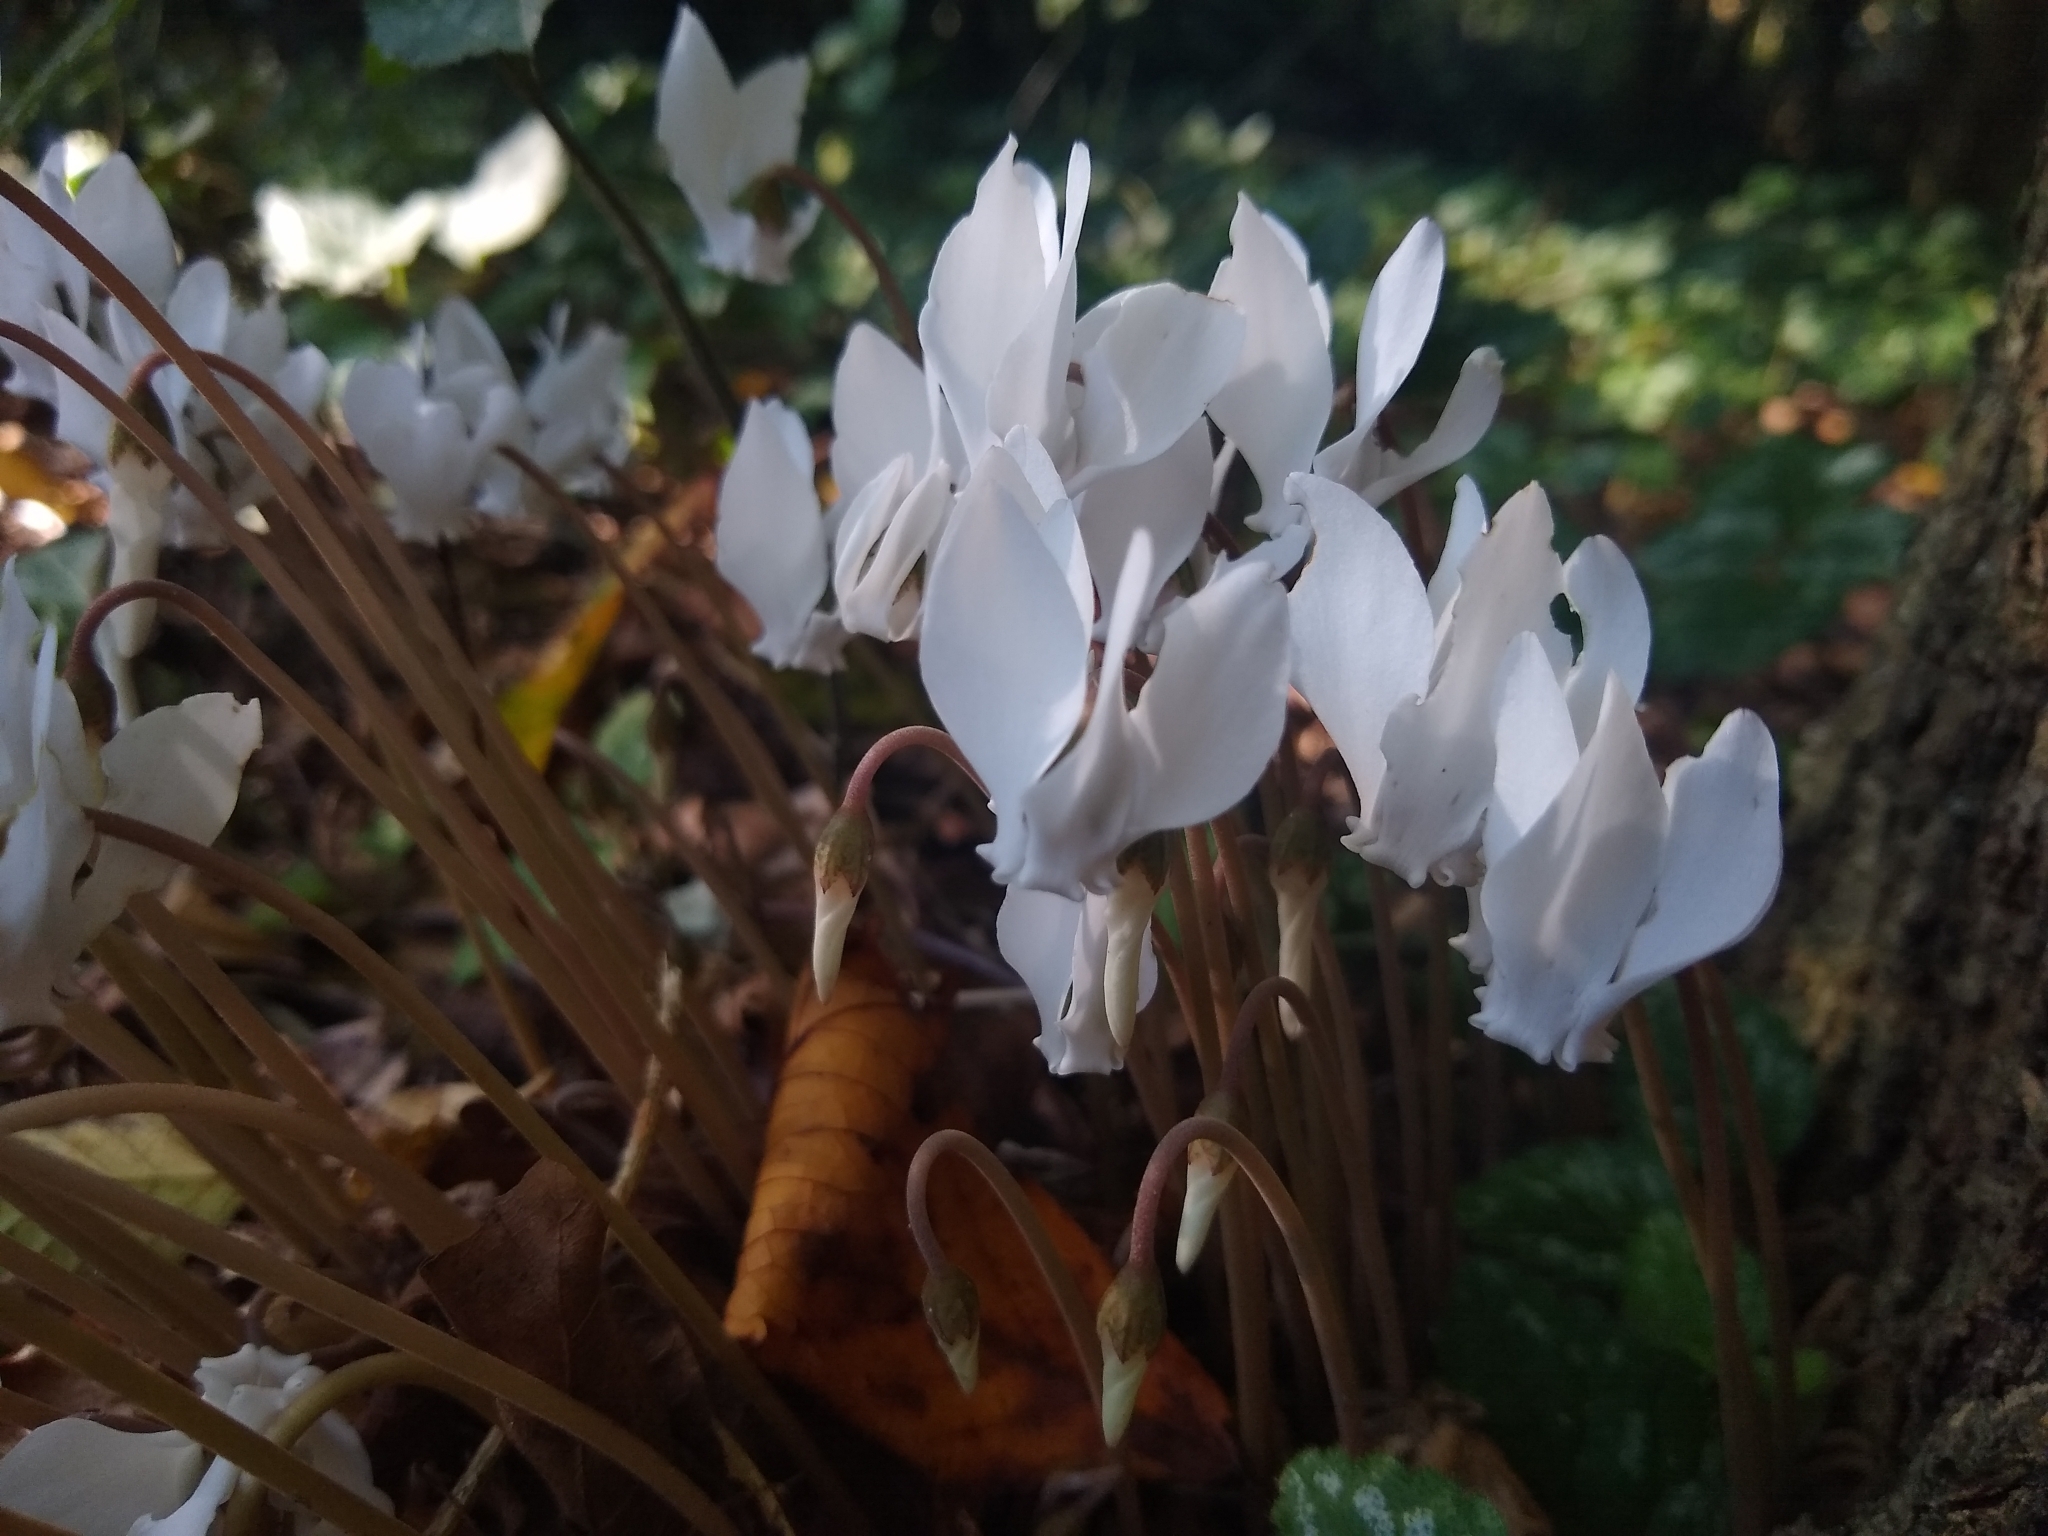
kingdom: Plantae
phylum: Tracheophyta
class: Magnoliopsida
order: Ericales
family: Primulaceae
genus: Cyclamen
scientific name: Cyclamen hederifolium
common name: Sowbread
